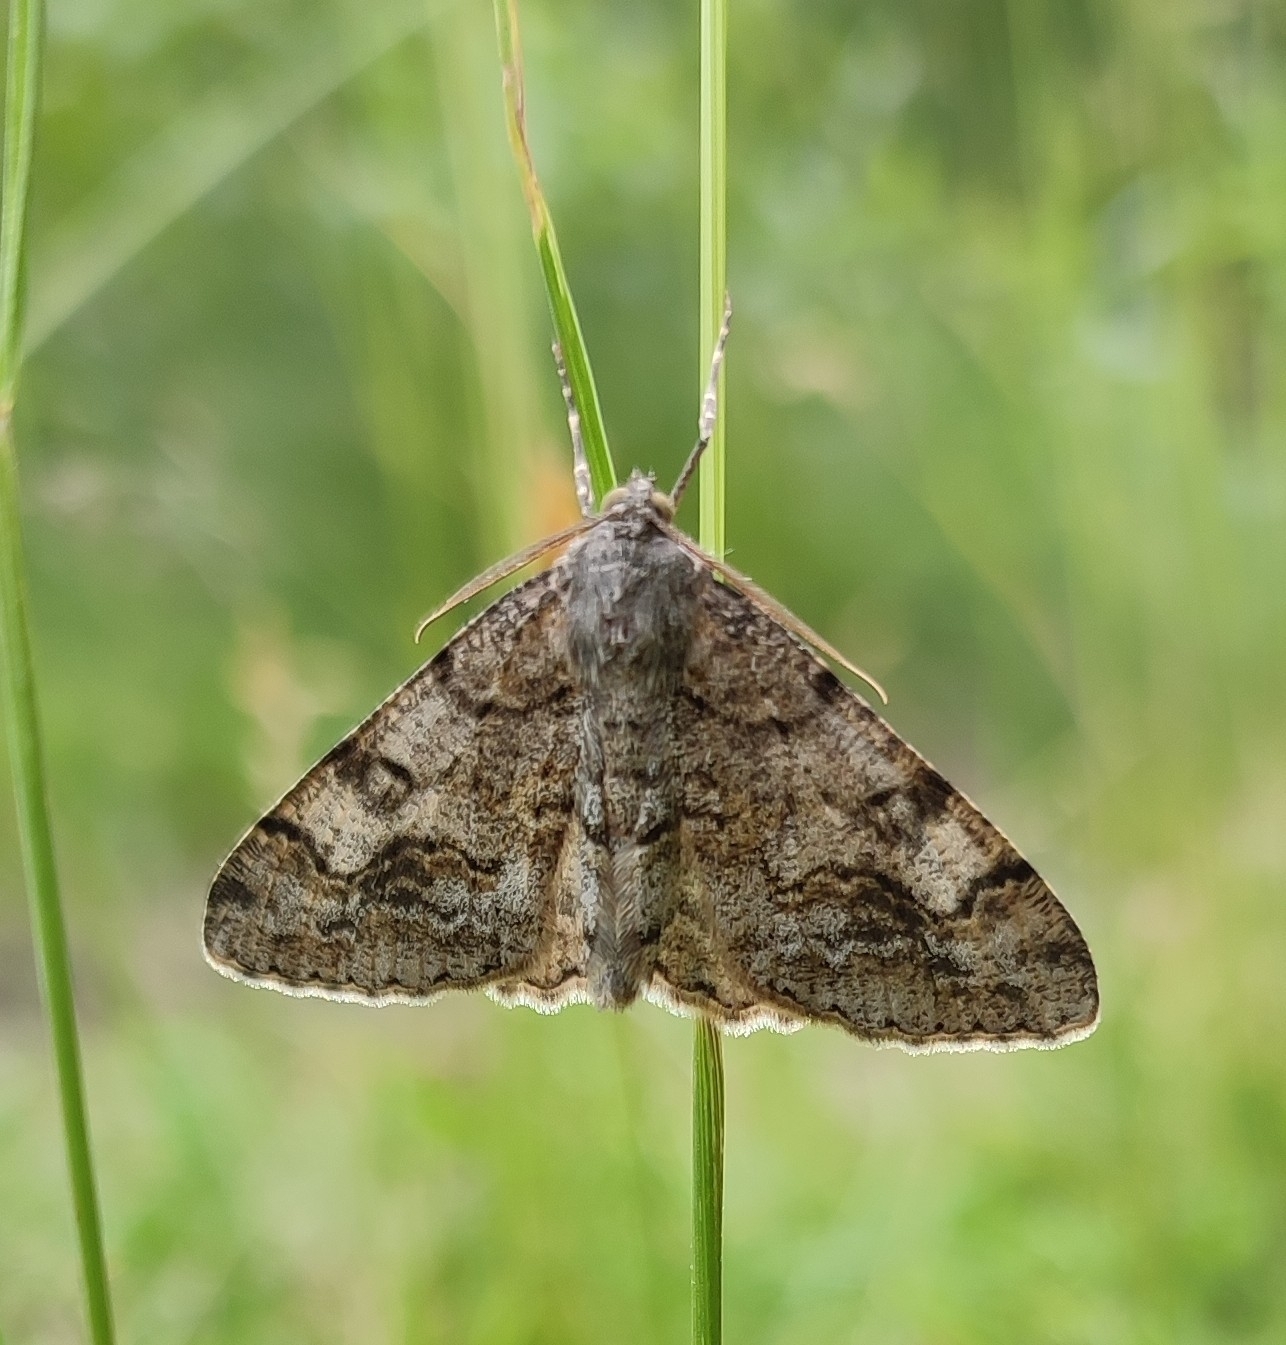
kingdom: Animalia
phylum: Arthropoda
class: Insecta
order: Lepidoptera
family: Geometridae
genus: Alcis
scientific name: Alcis repandata
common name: Mottled beauty
